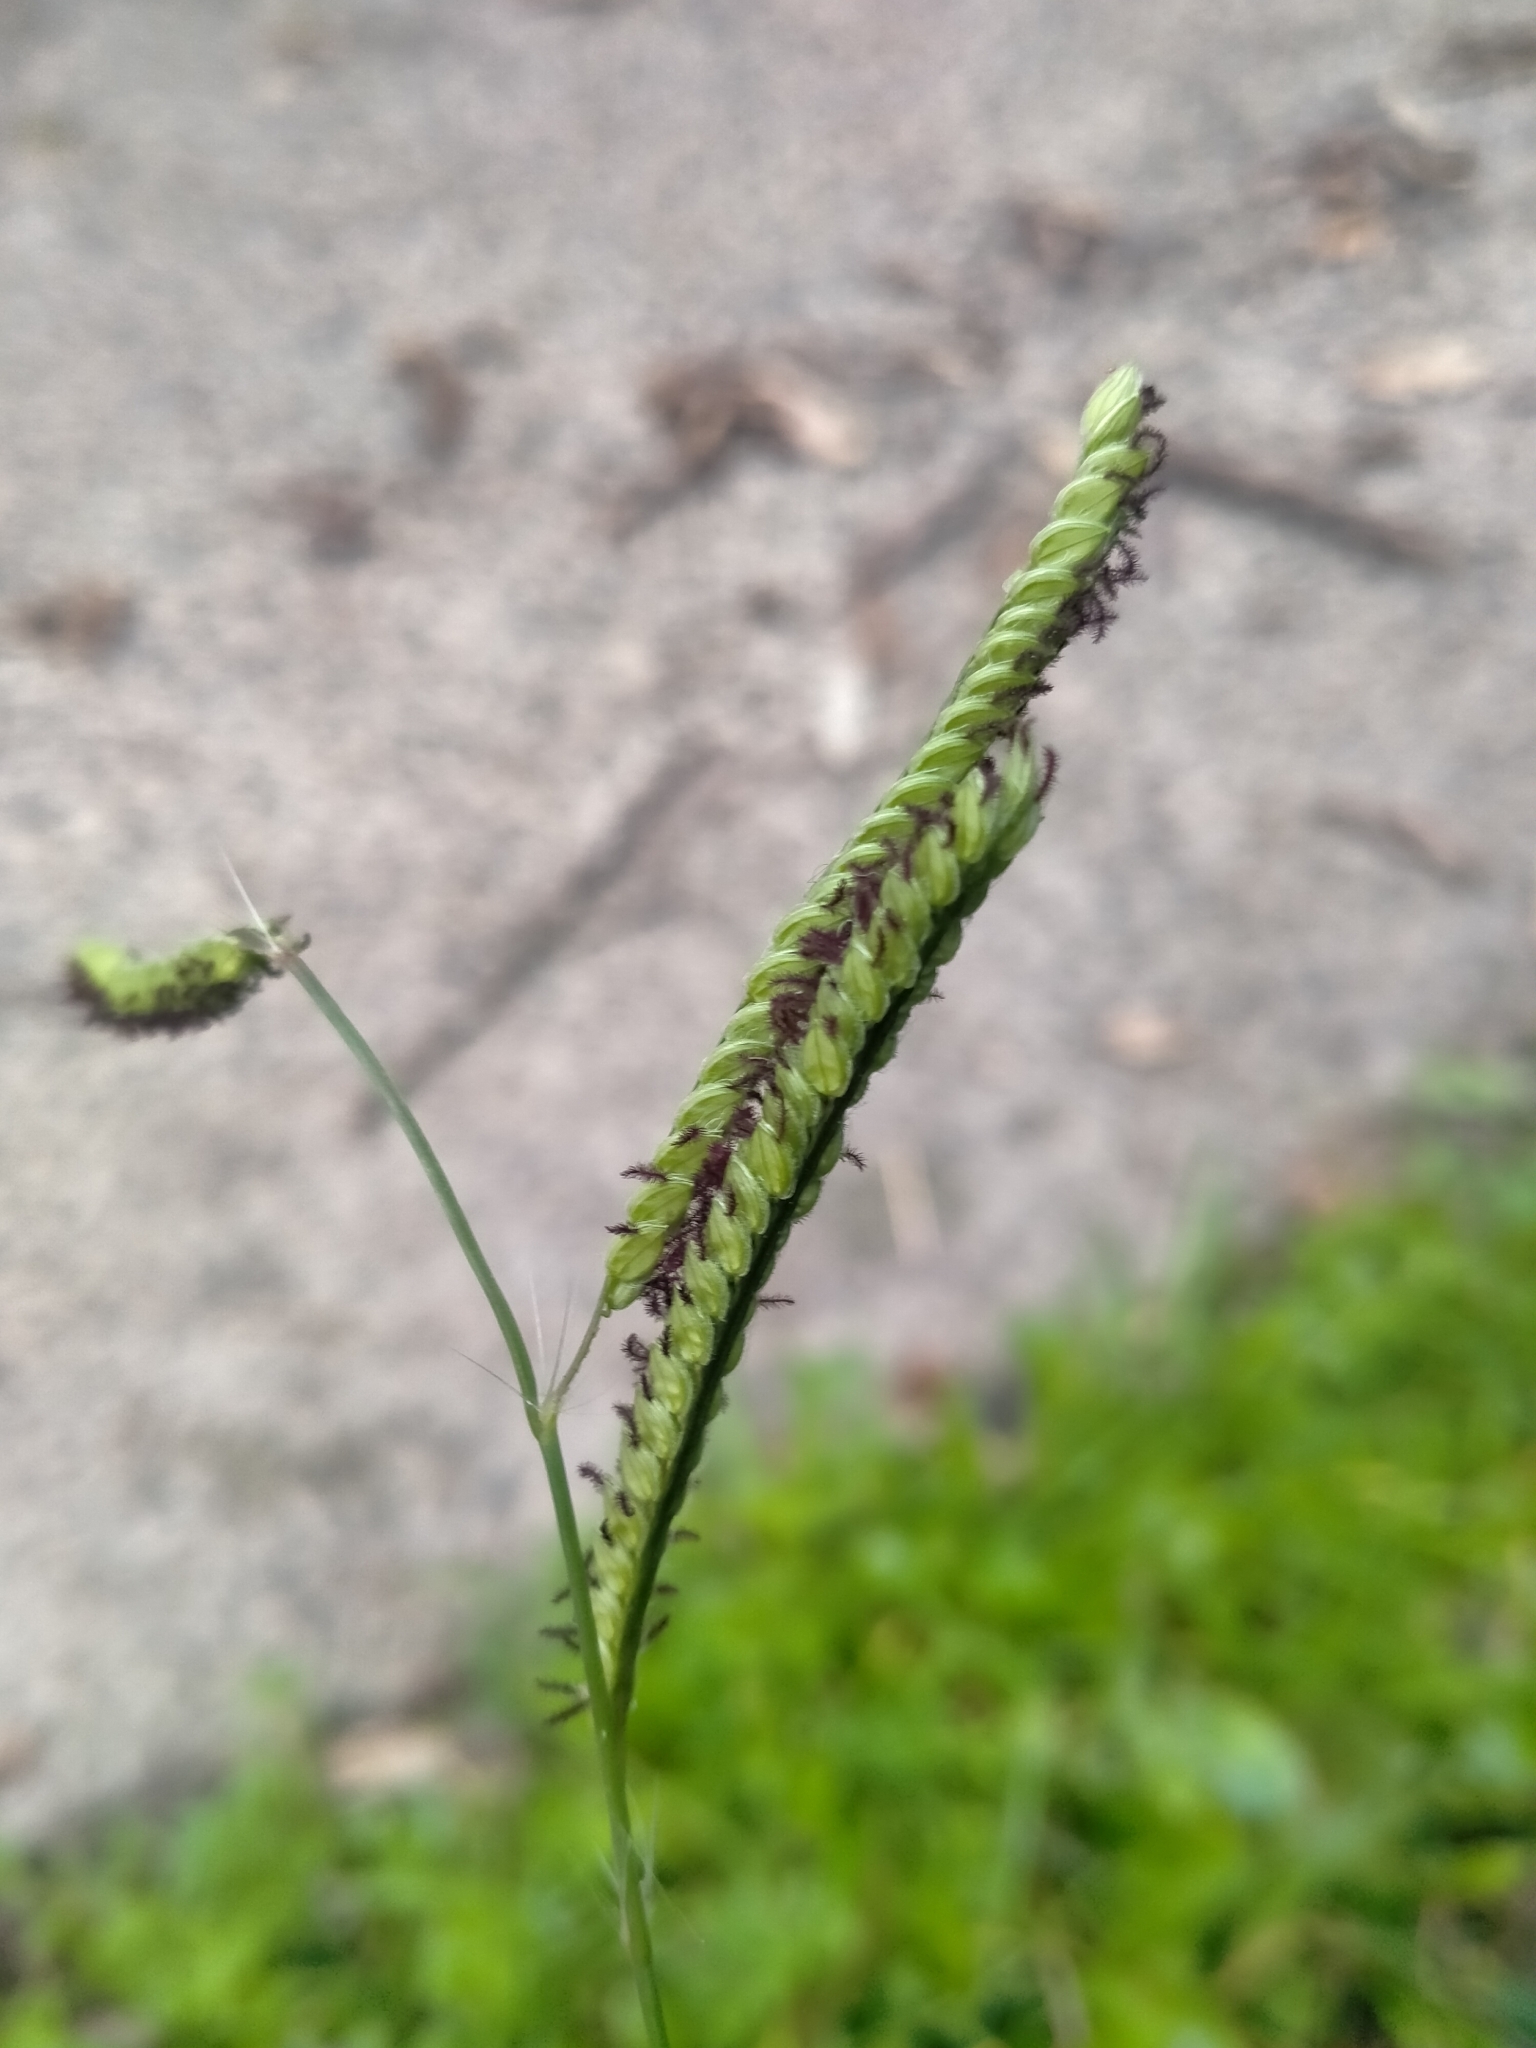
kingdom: Plantae
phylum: Tracheophyta
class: Liliopsida
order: Poales
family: Poaceae
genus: Paspalum
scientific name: Paspalum dilatatum
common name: Dallisgrass
